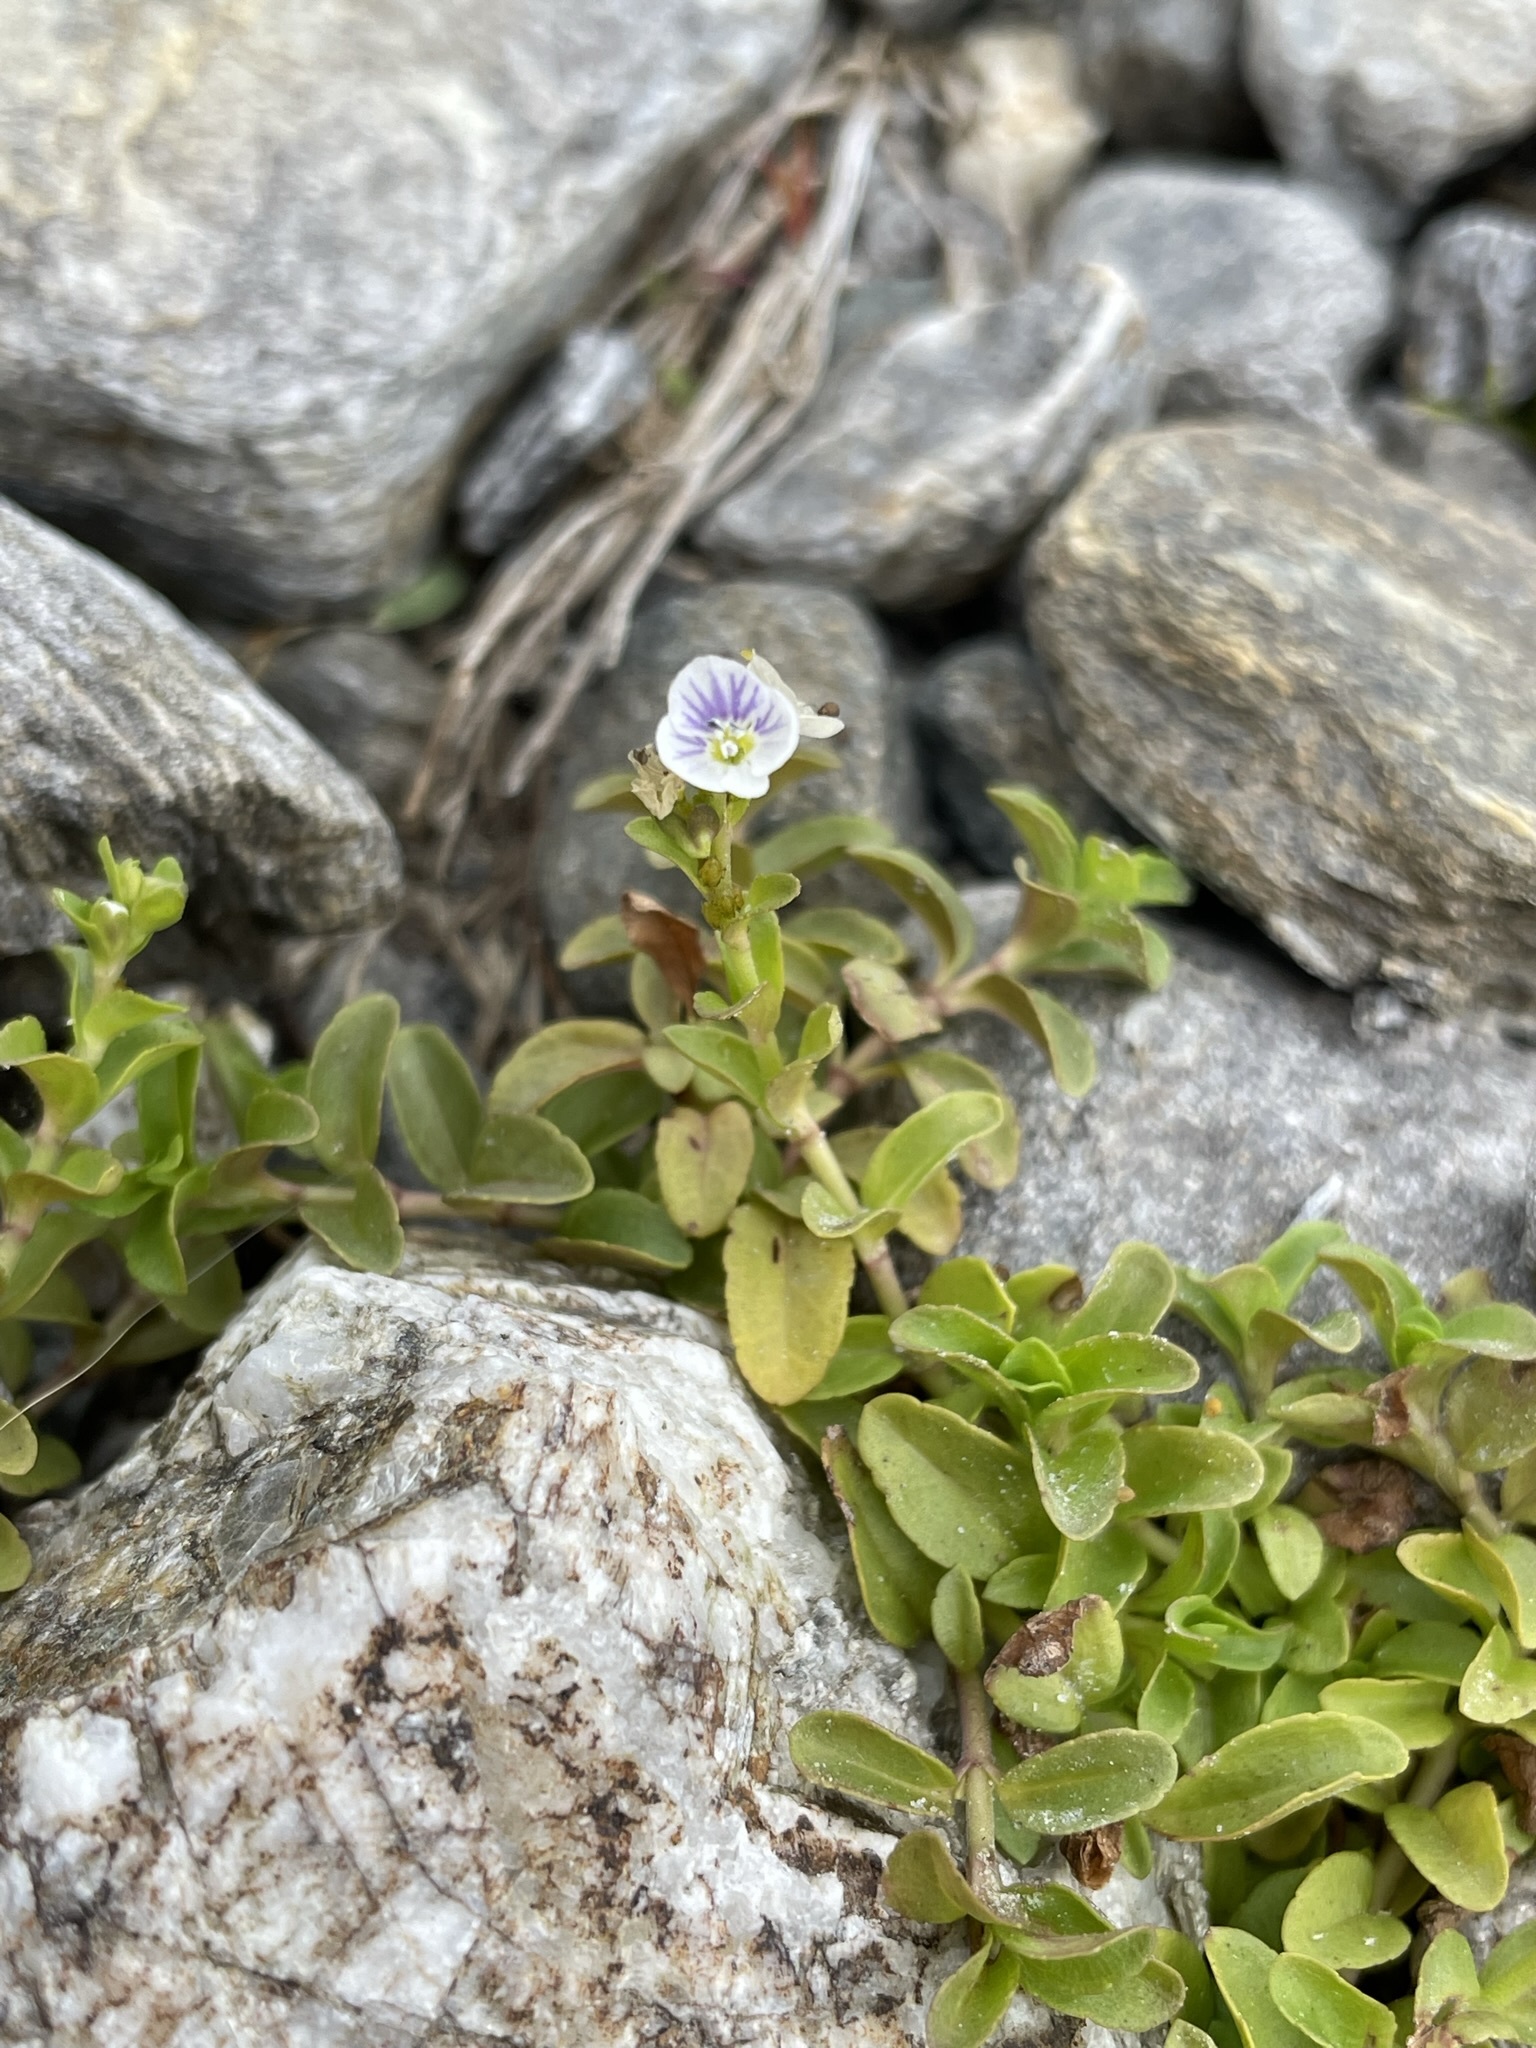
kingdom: Plantae
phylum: Tracheophyta
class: Magnoliopsida
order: Lamiales
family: Plantaginaceae
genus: Veronica
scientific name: Veronica serpyllifolia
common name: Thyme-leaved speedwell
